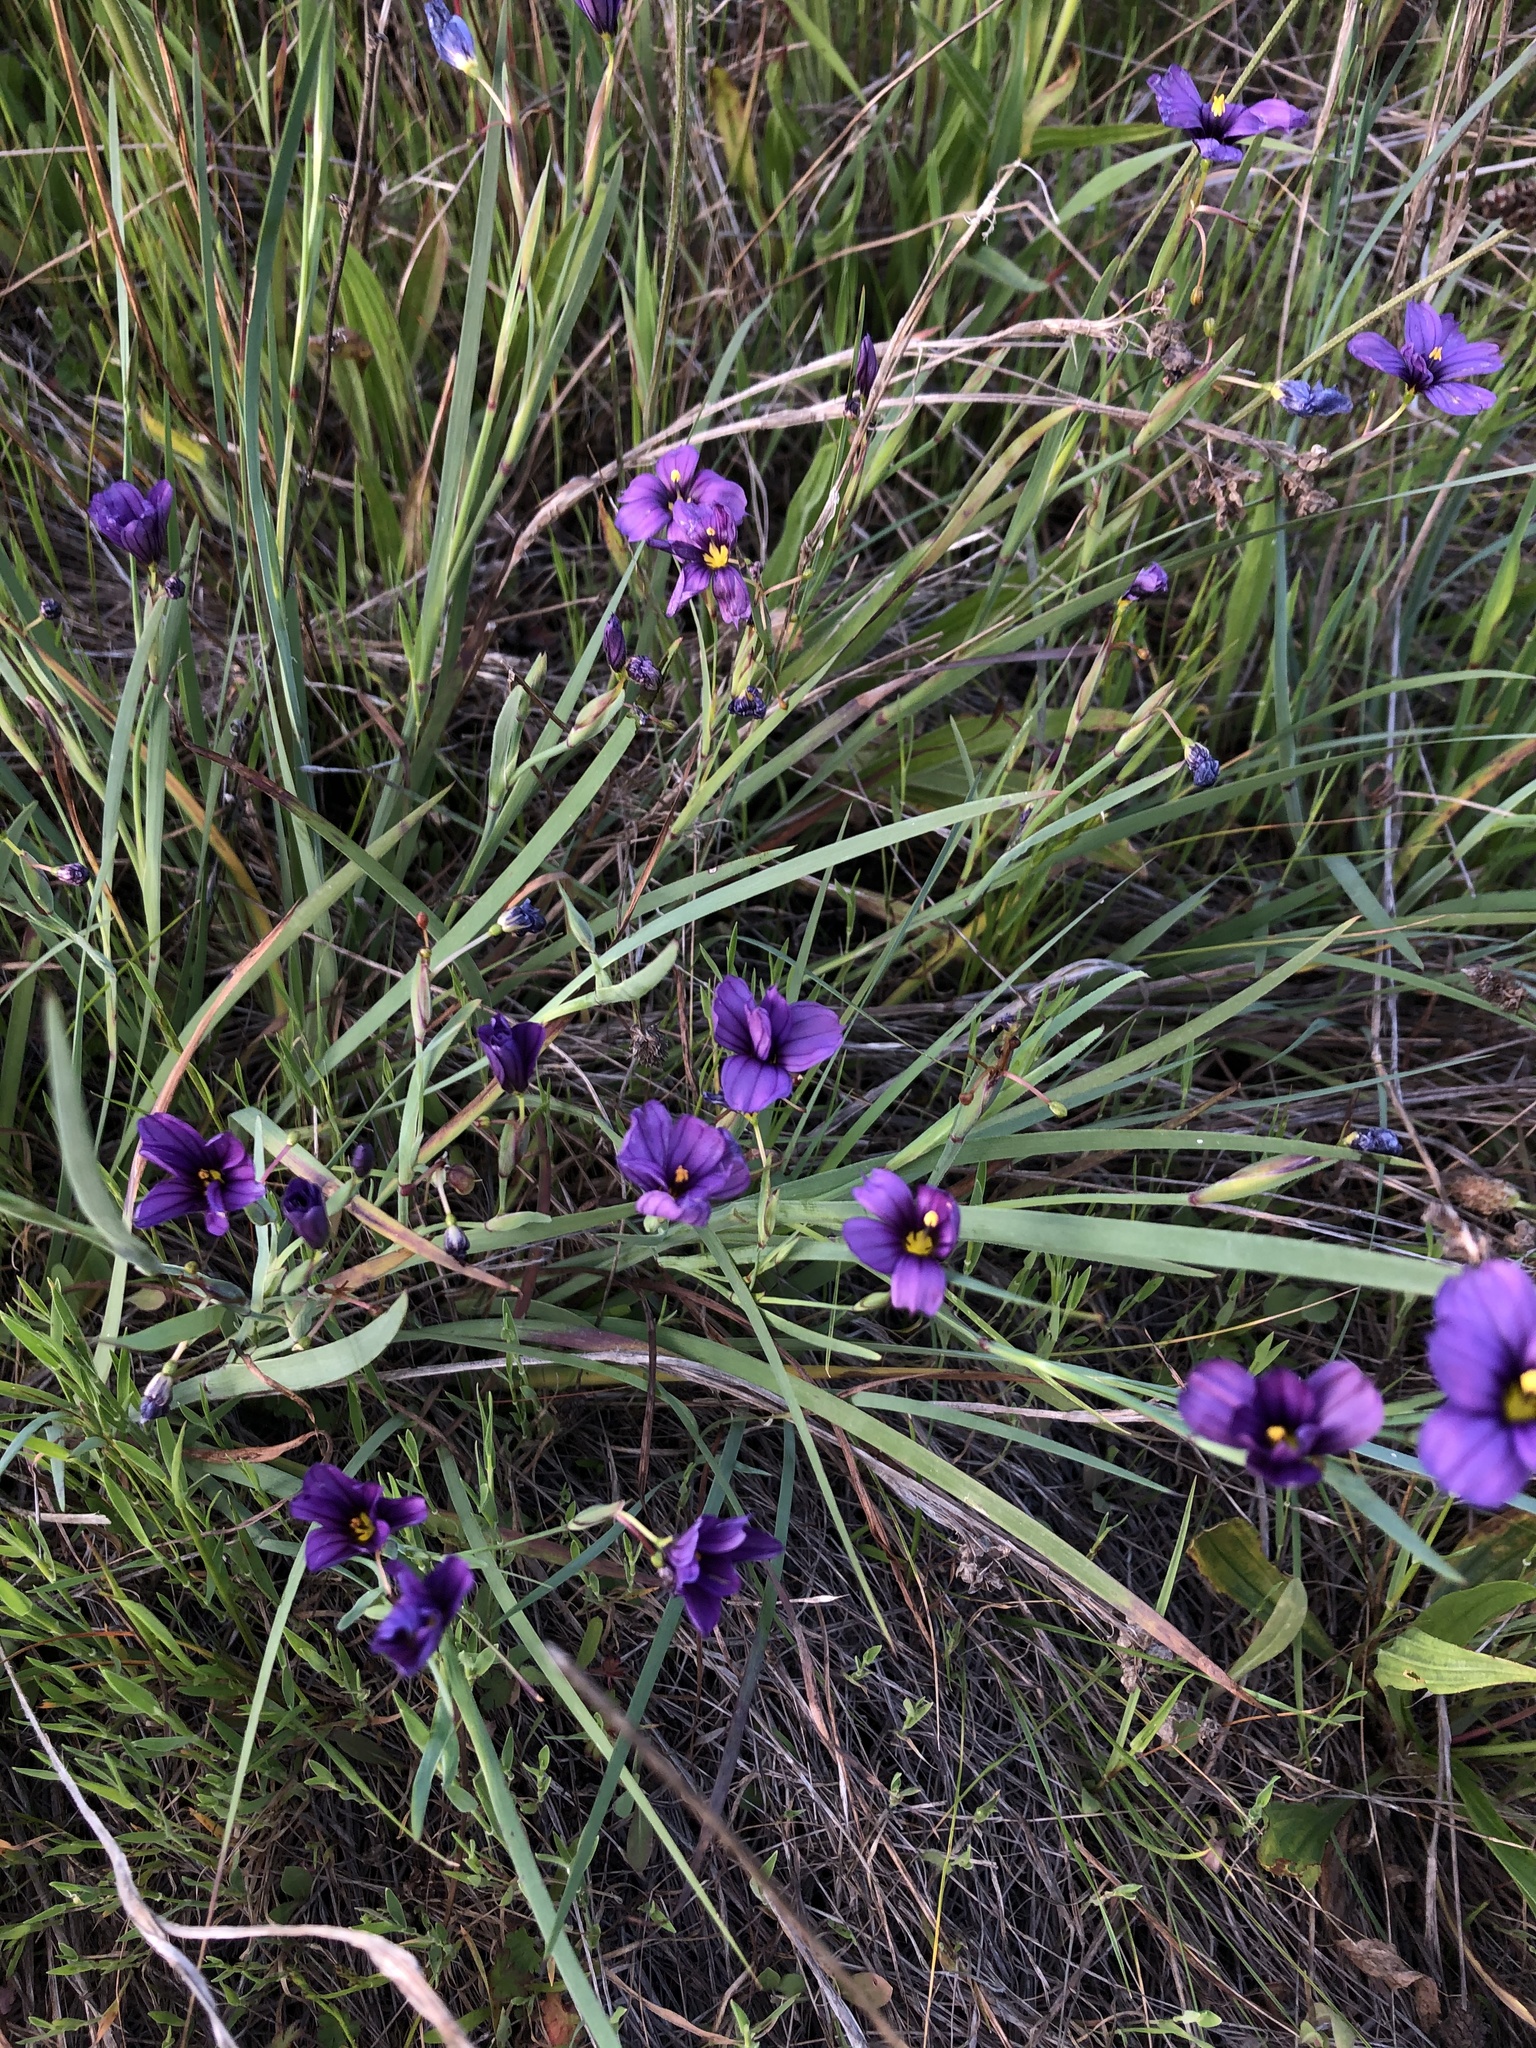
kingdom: Plantae
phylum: Tracheophyta
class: Liliopsida
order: Asparagales
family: Iridaceae
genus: Sisyrinchium
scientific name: Sisyrinchium bellum
